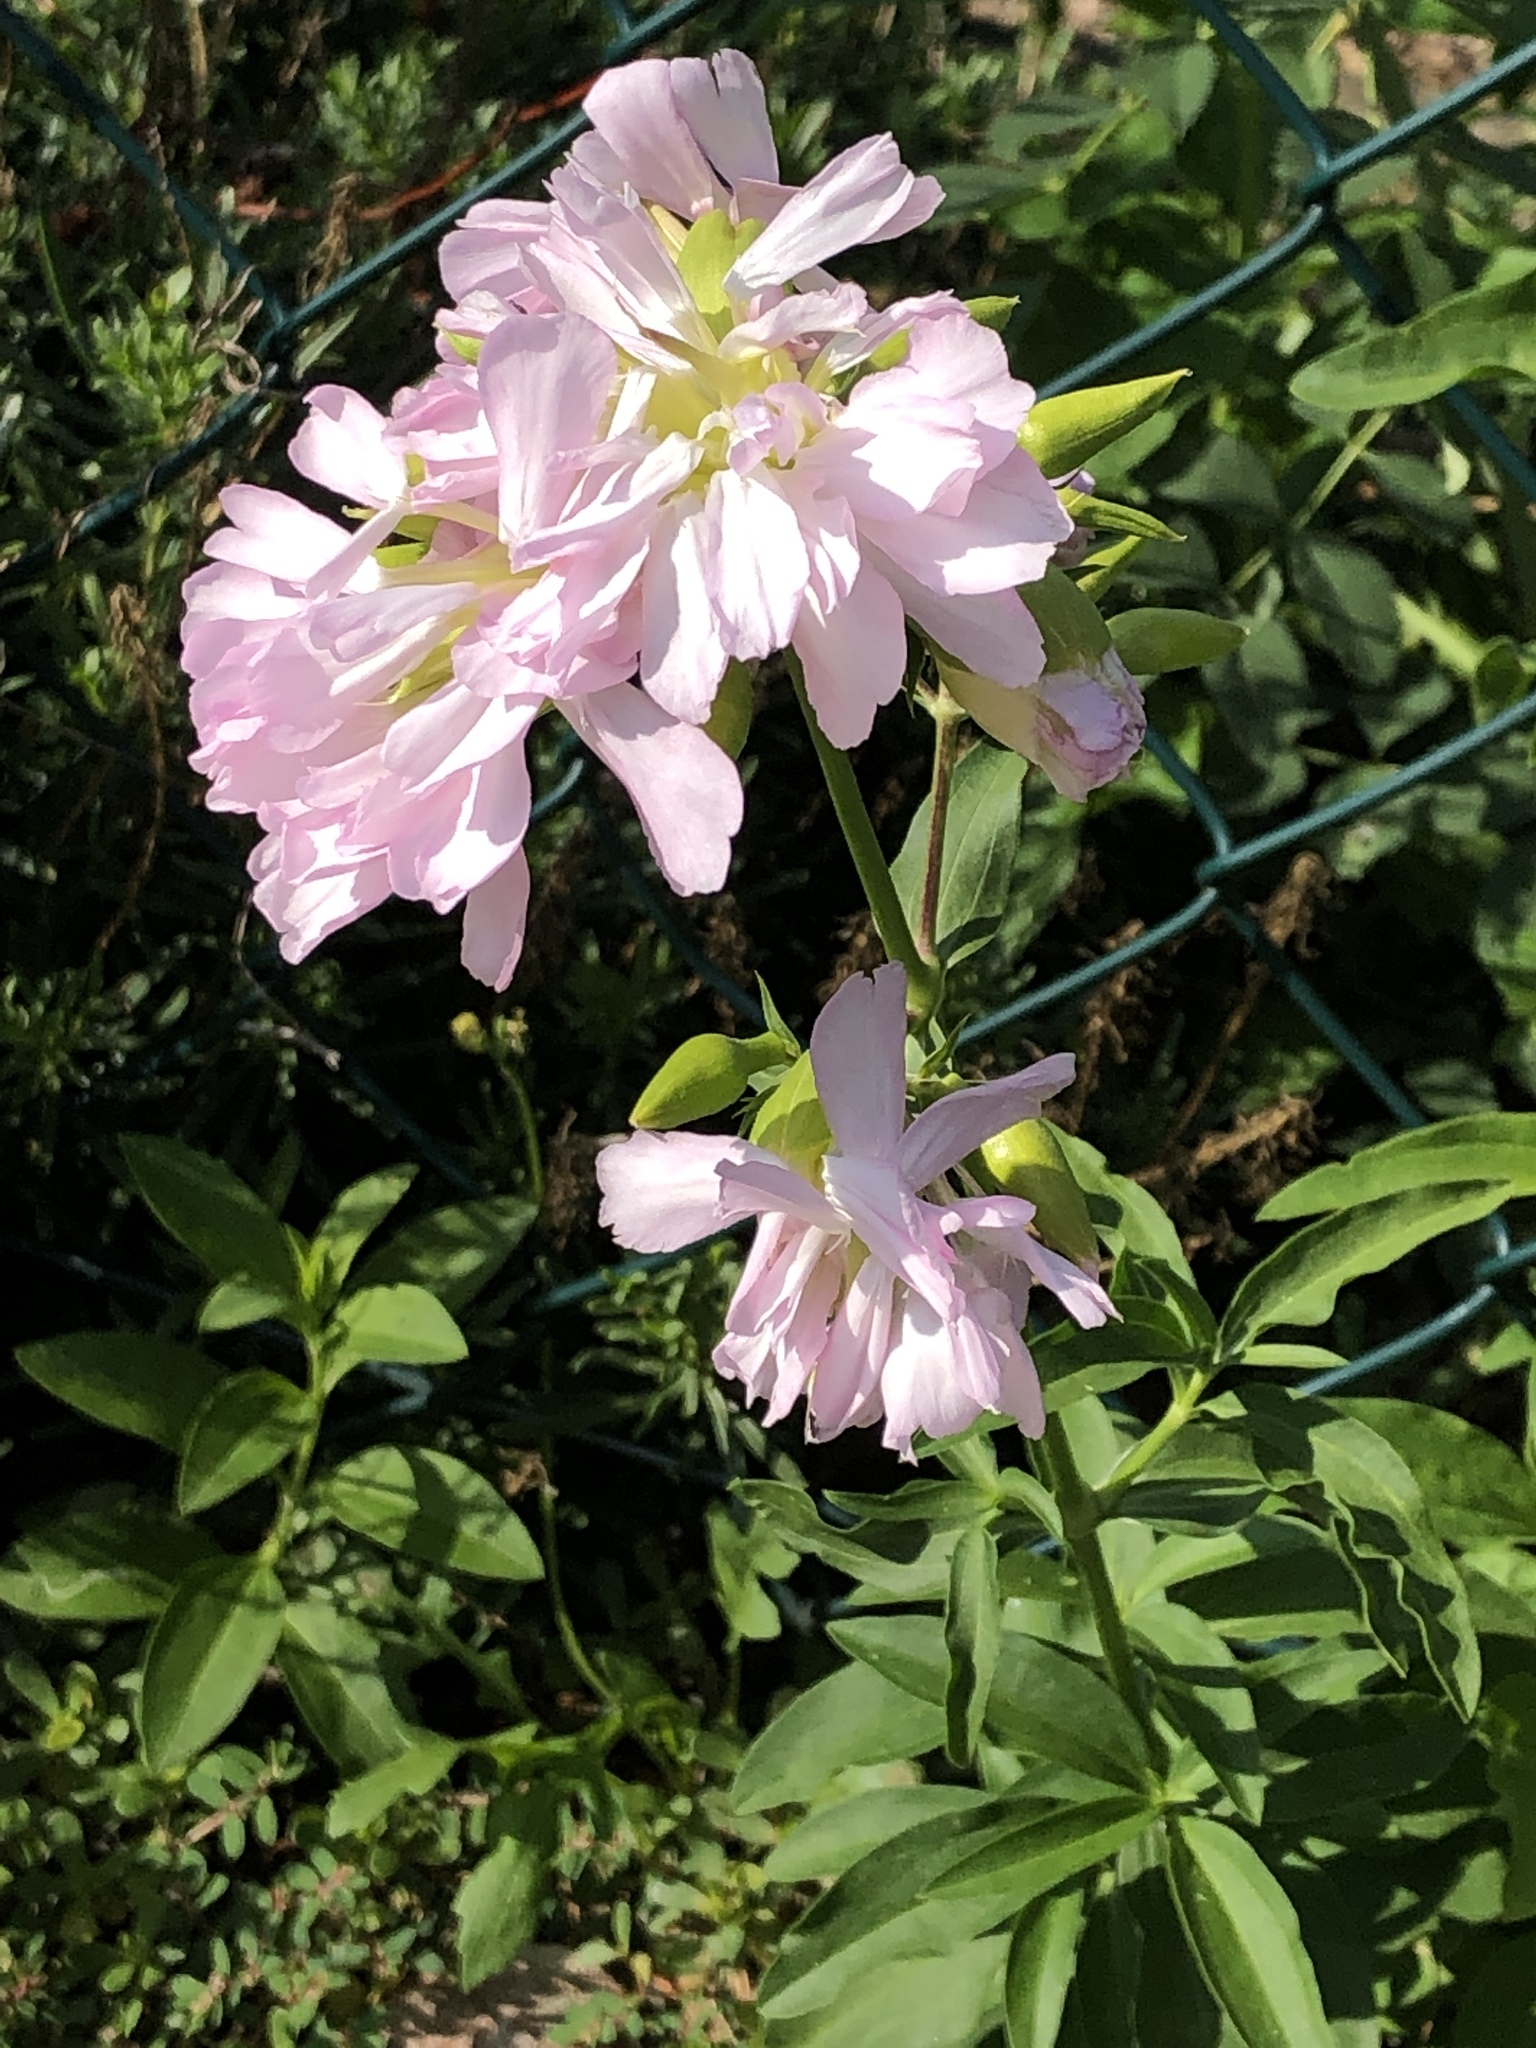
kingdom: Plantae
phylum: Tracheophyta
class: Magnoliopsida
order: Caryophyllales
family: Caryophyllaceae
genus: Saponaria
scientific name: Saponaria officinalis
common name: Soapwort
